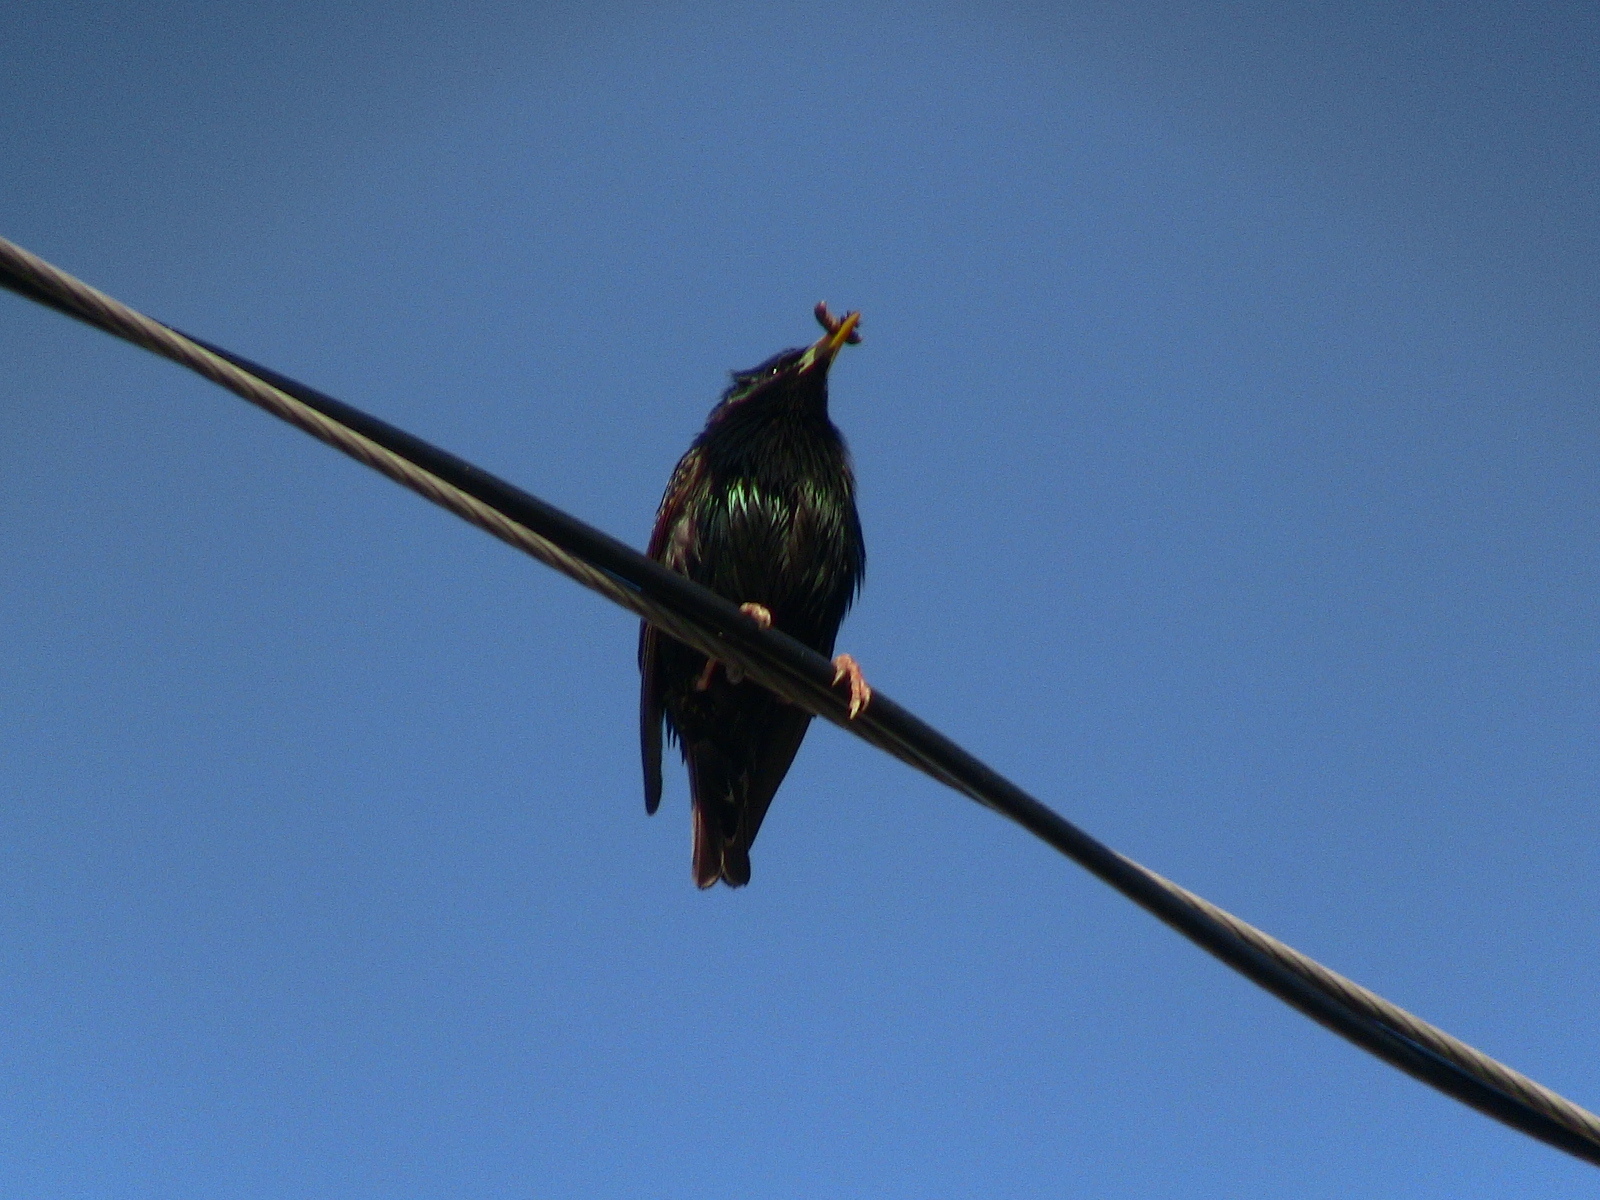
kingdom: Animalia
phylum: Chordata
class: Aves
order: Passeriformes
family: Sturnidae
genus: Sturnus
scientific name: Sturnus vulgaris
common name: Common starling
